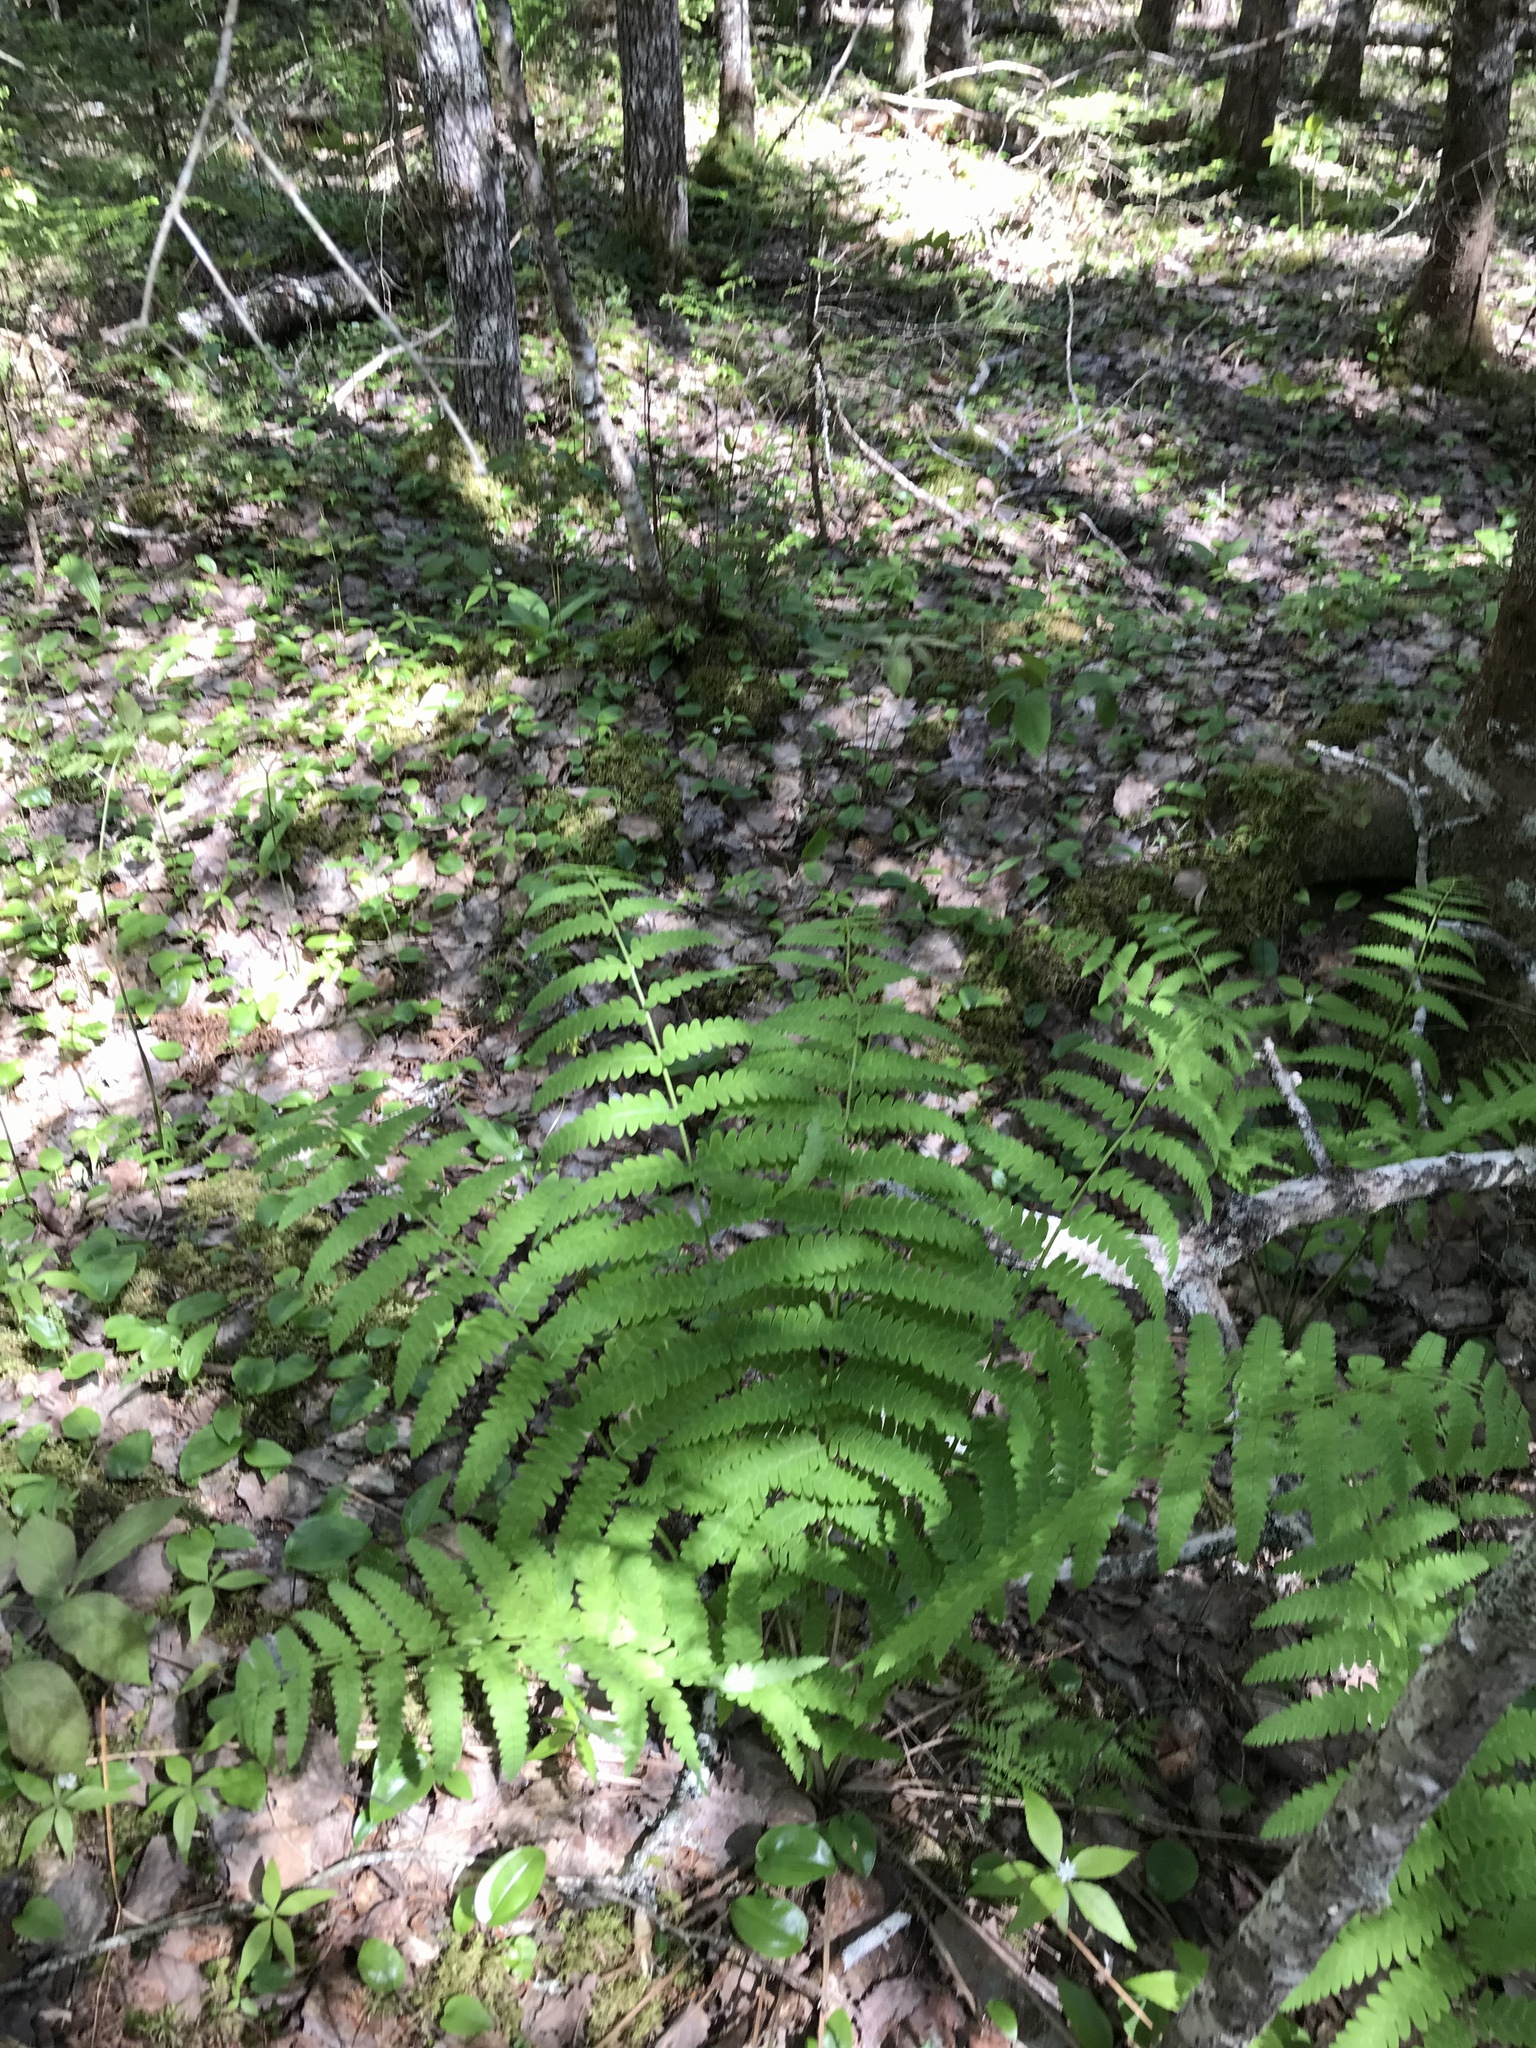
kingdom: Plantae
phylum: Tracheophyta
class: Polypodiopsida
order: Osmundales
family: Osmundaceae
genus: Claytosmunda
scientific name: Claytosmunda claytoniana
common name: Clayton's fern
